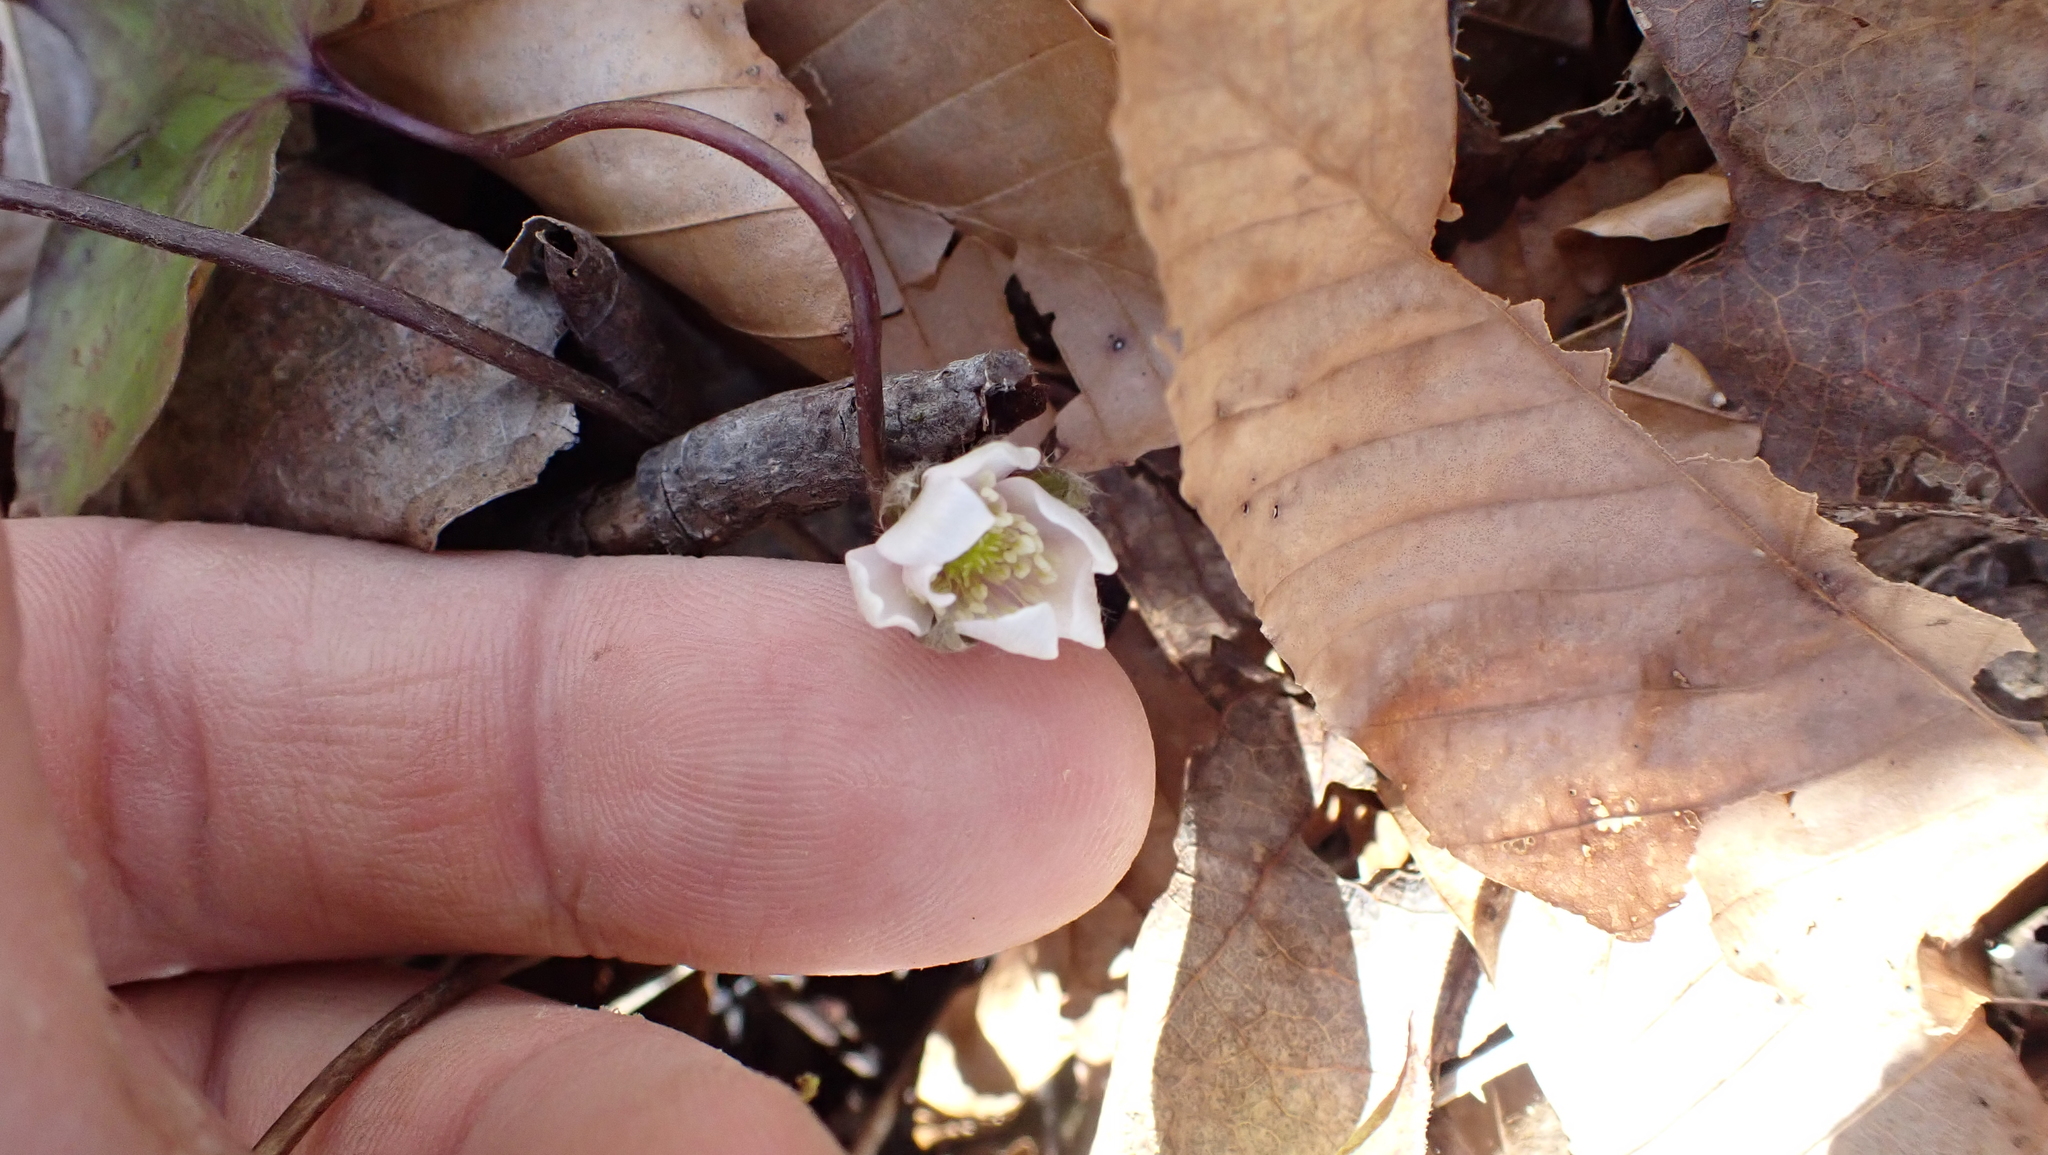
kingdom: Plantae
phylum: Tracheophyta
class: Magnoliopsida
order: Ranunculales
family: Ranunculaceae
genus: Hepatica
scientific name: Hepatica acutiloba
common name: Sharp-lobed hepatica
